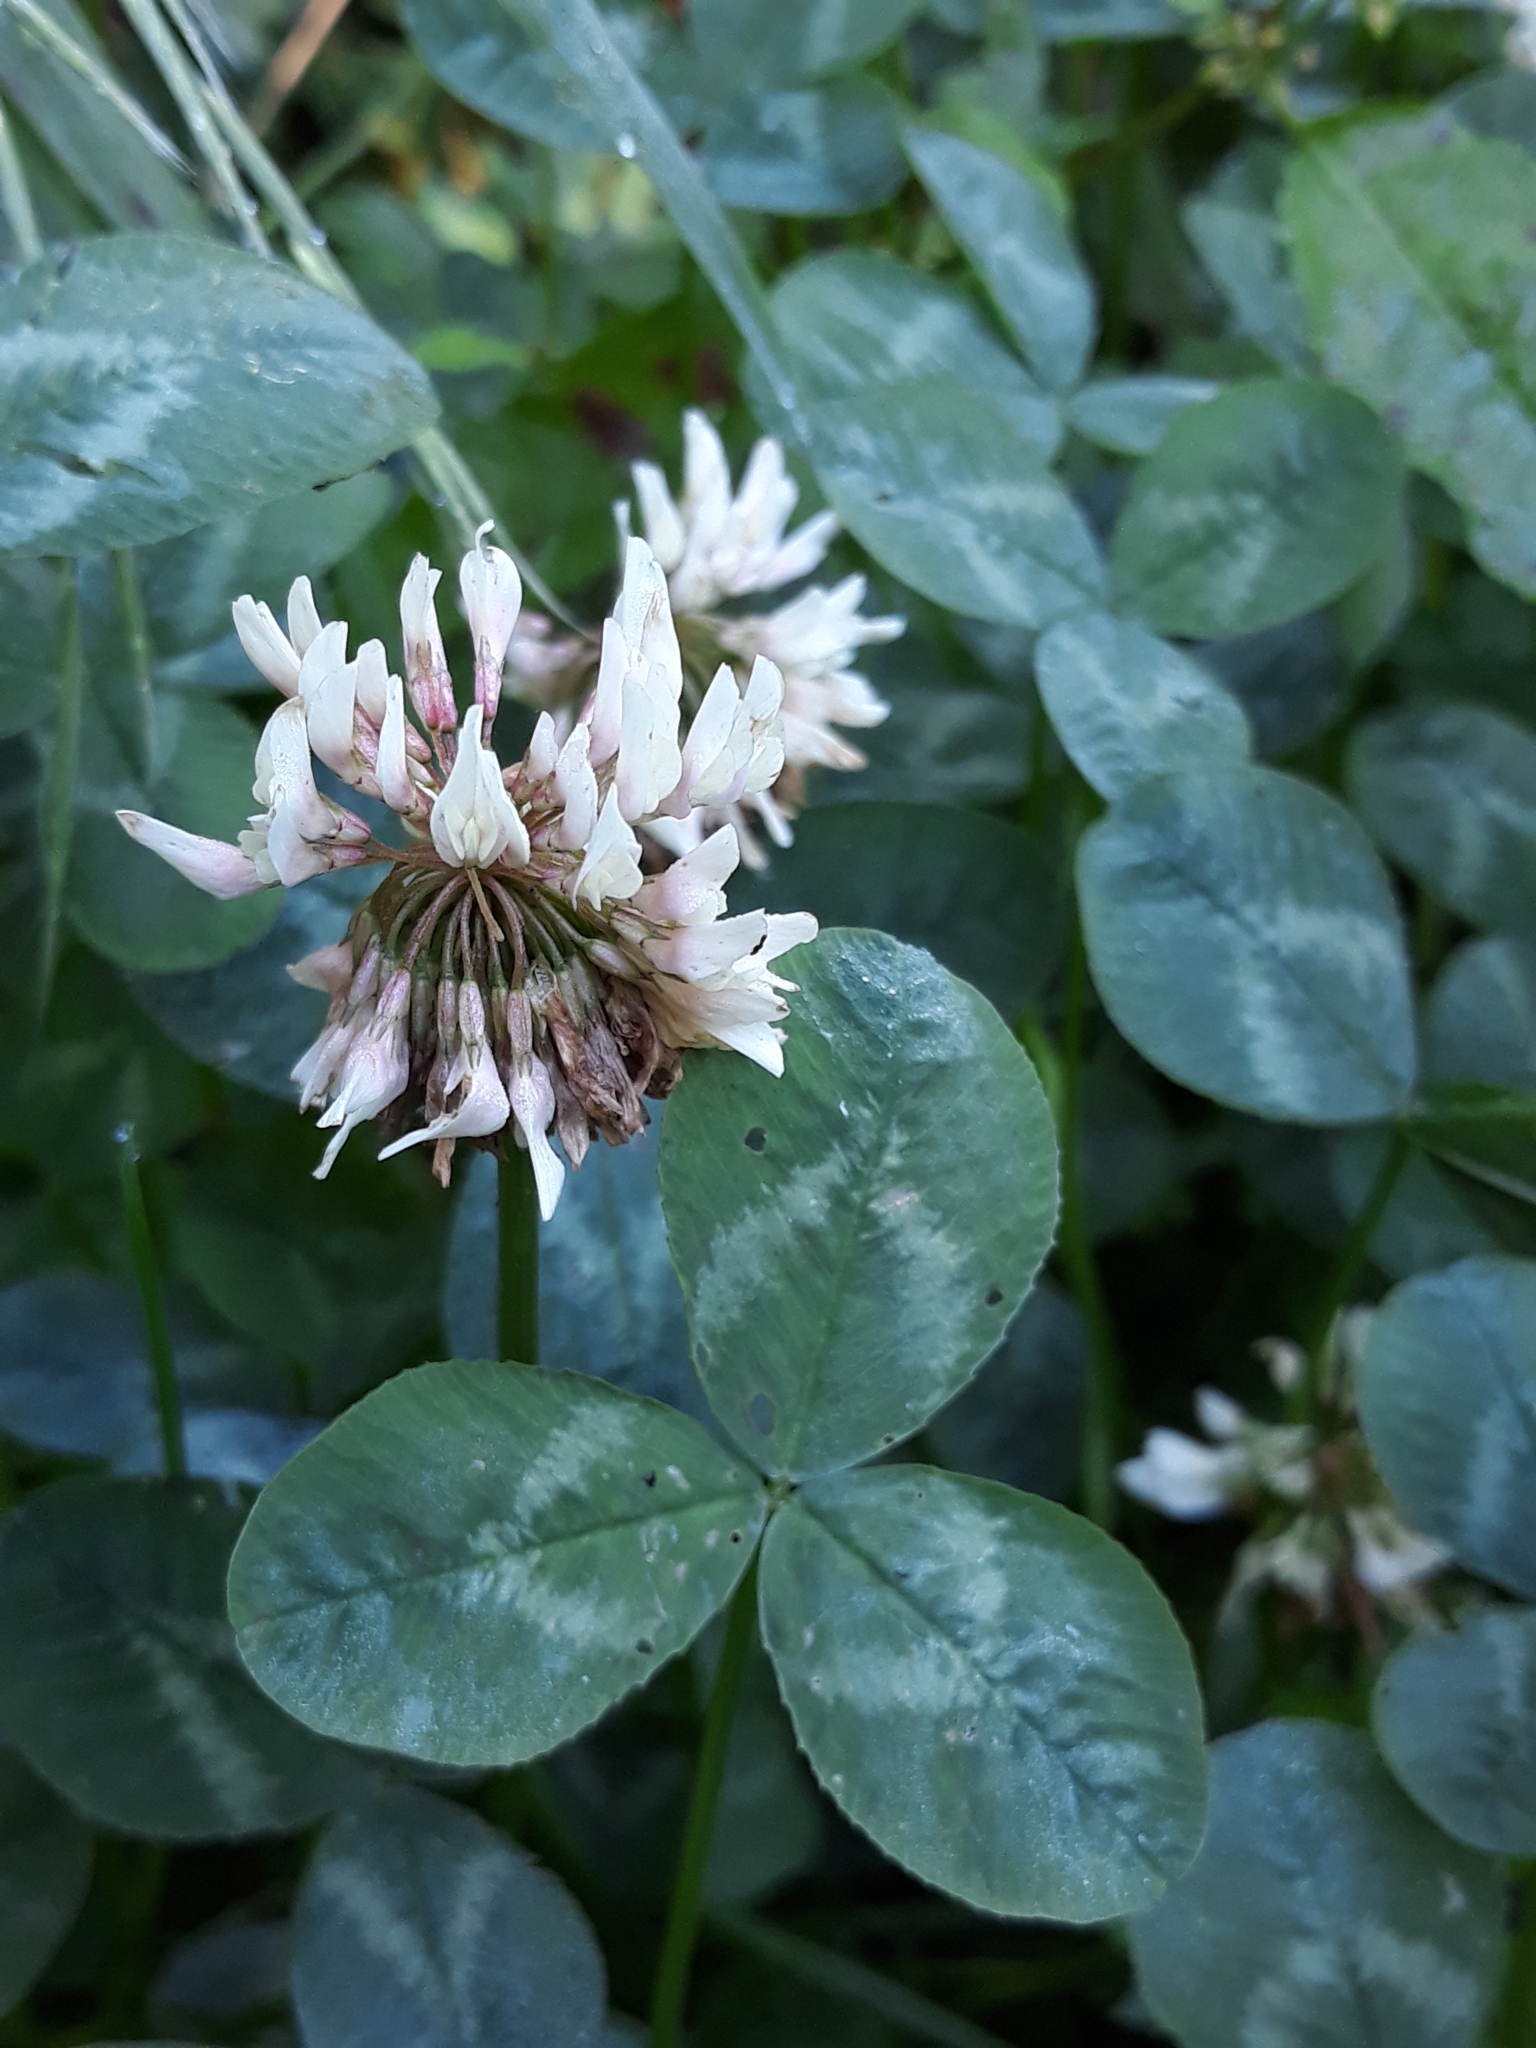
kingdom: Plantae
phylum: Tracheophyta
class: Magnoliopsida
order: Fabales
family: Fabaceae
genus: Trifolium
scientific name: Trifolium repens
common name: White clover
